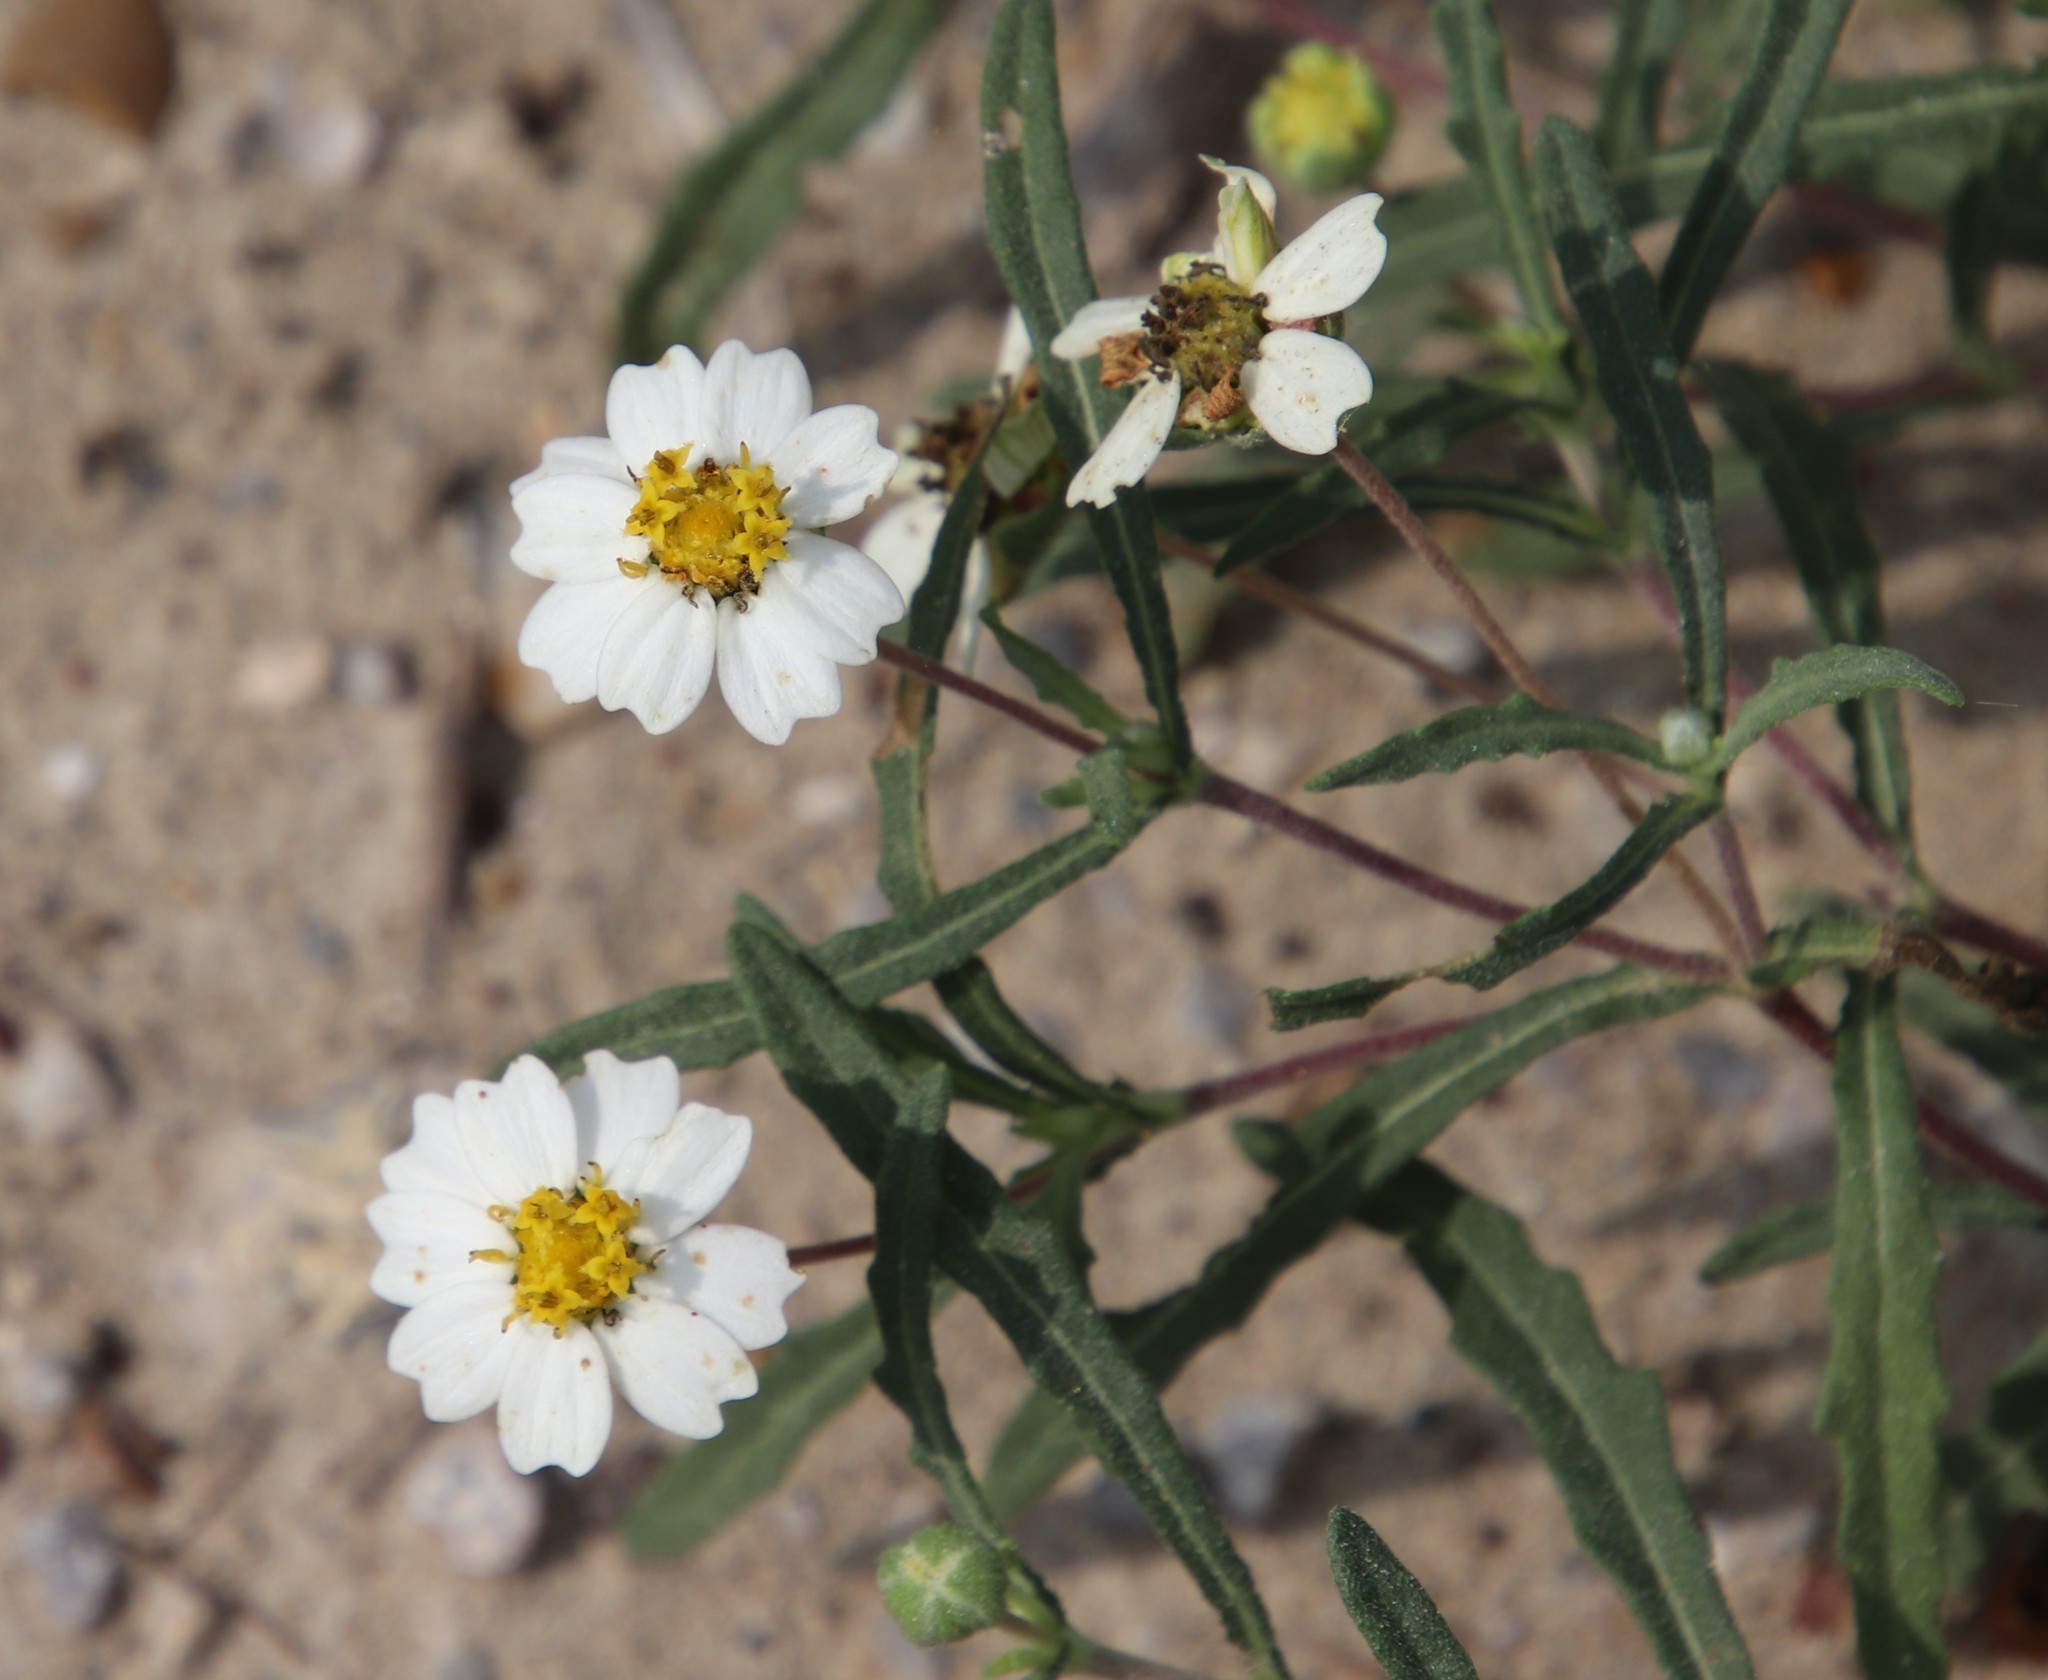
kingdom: Plantae
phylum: Tracheophyta
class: Magnoliopsida
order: Asterales
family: Asteraceae
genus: Melampodium
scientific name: Melampodium cinereum
